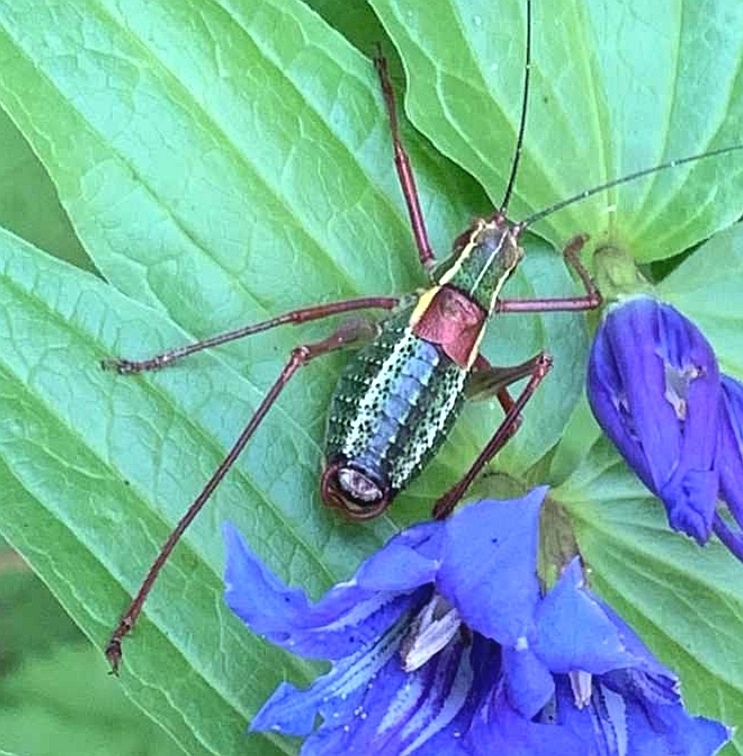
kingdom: Animalia
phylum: Arthropoda
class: Insecta
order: Orthoptera
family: Tettigoniidae
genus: Barbitistes
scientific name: Barbitistes serricauda
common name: Saw-tailed bush-cricket
